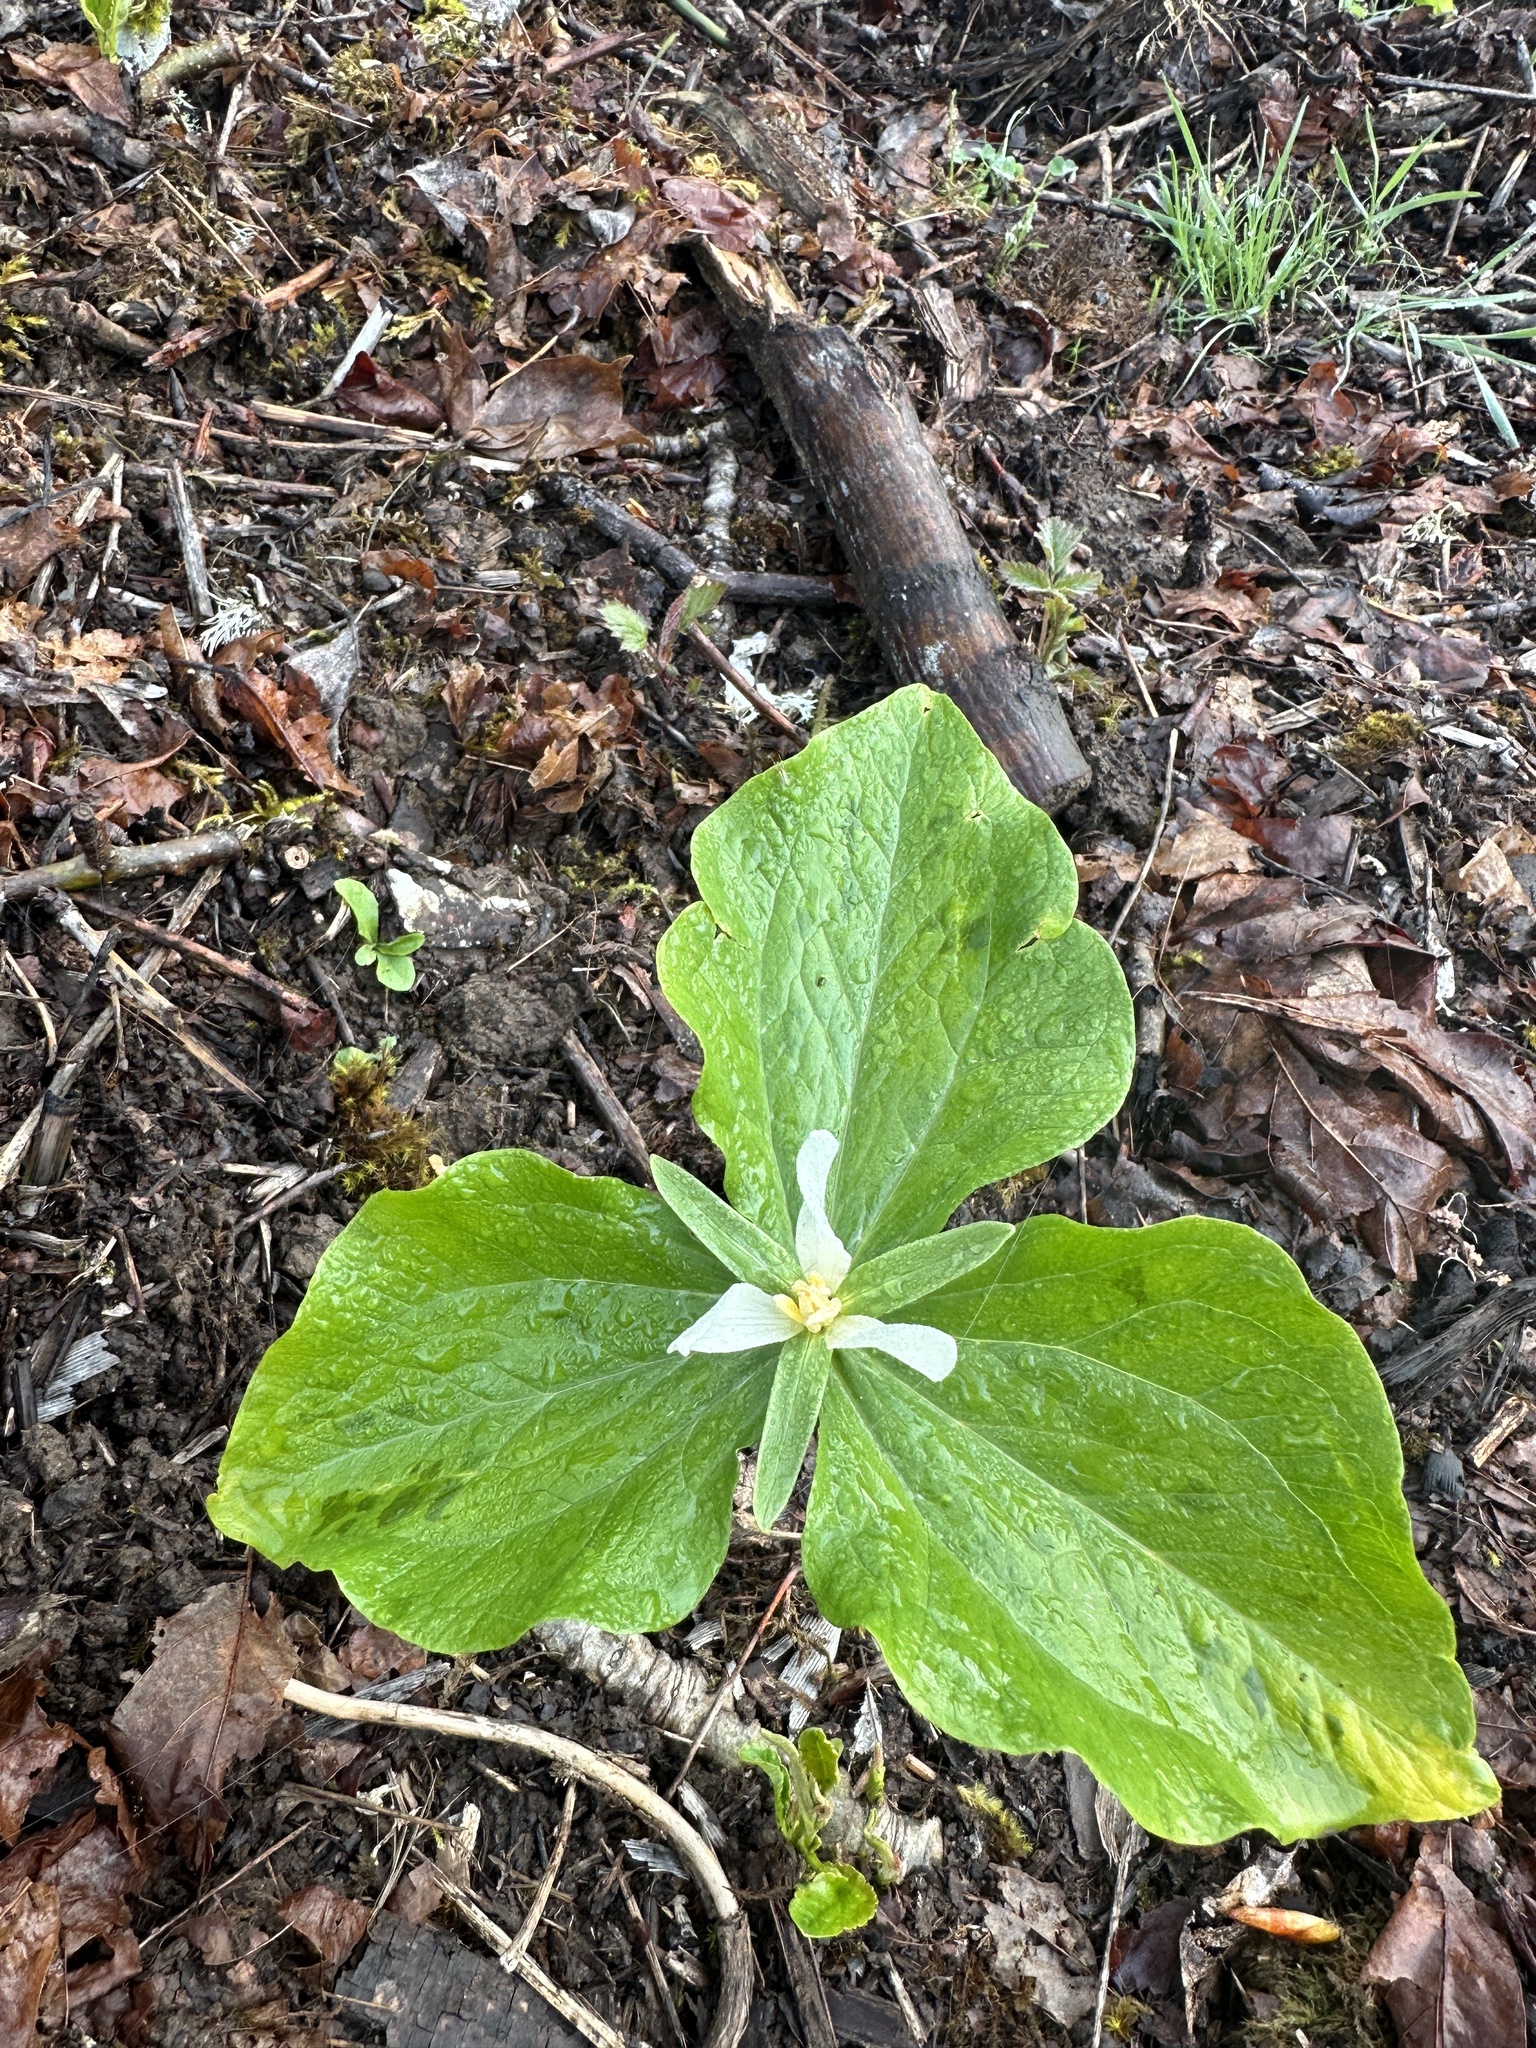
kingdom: Plantae
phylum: Tracheophyta
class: Liliopsida
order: Liliales
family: Melanthiaceae
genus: Trillium
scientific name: Trillium albidum
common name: Freeman's trillium
